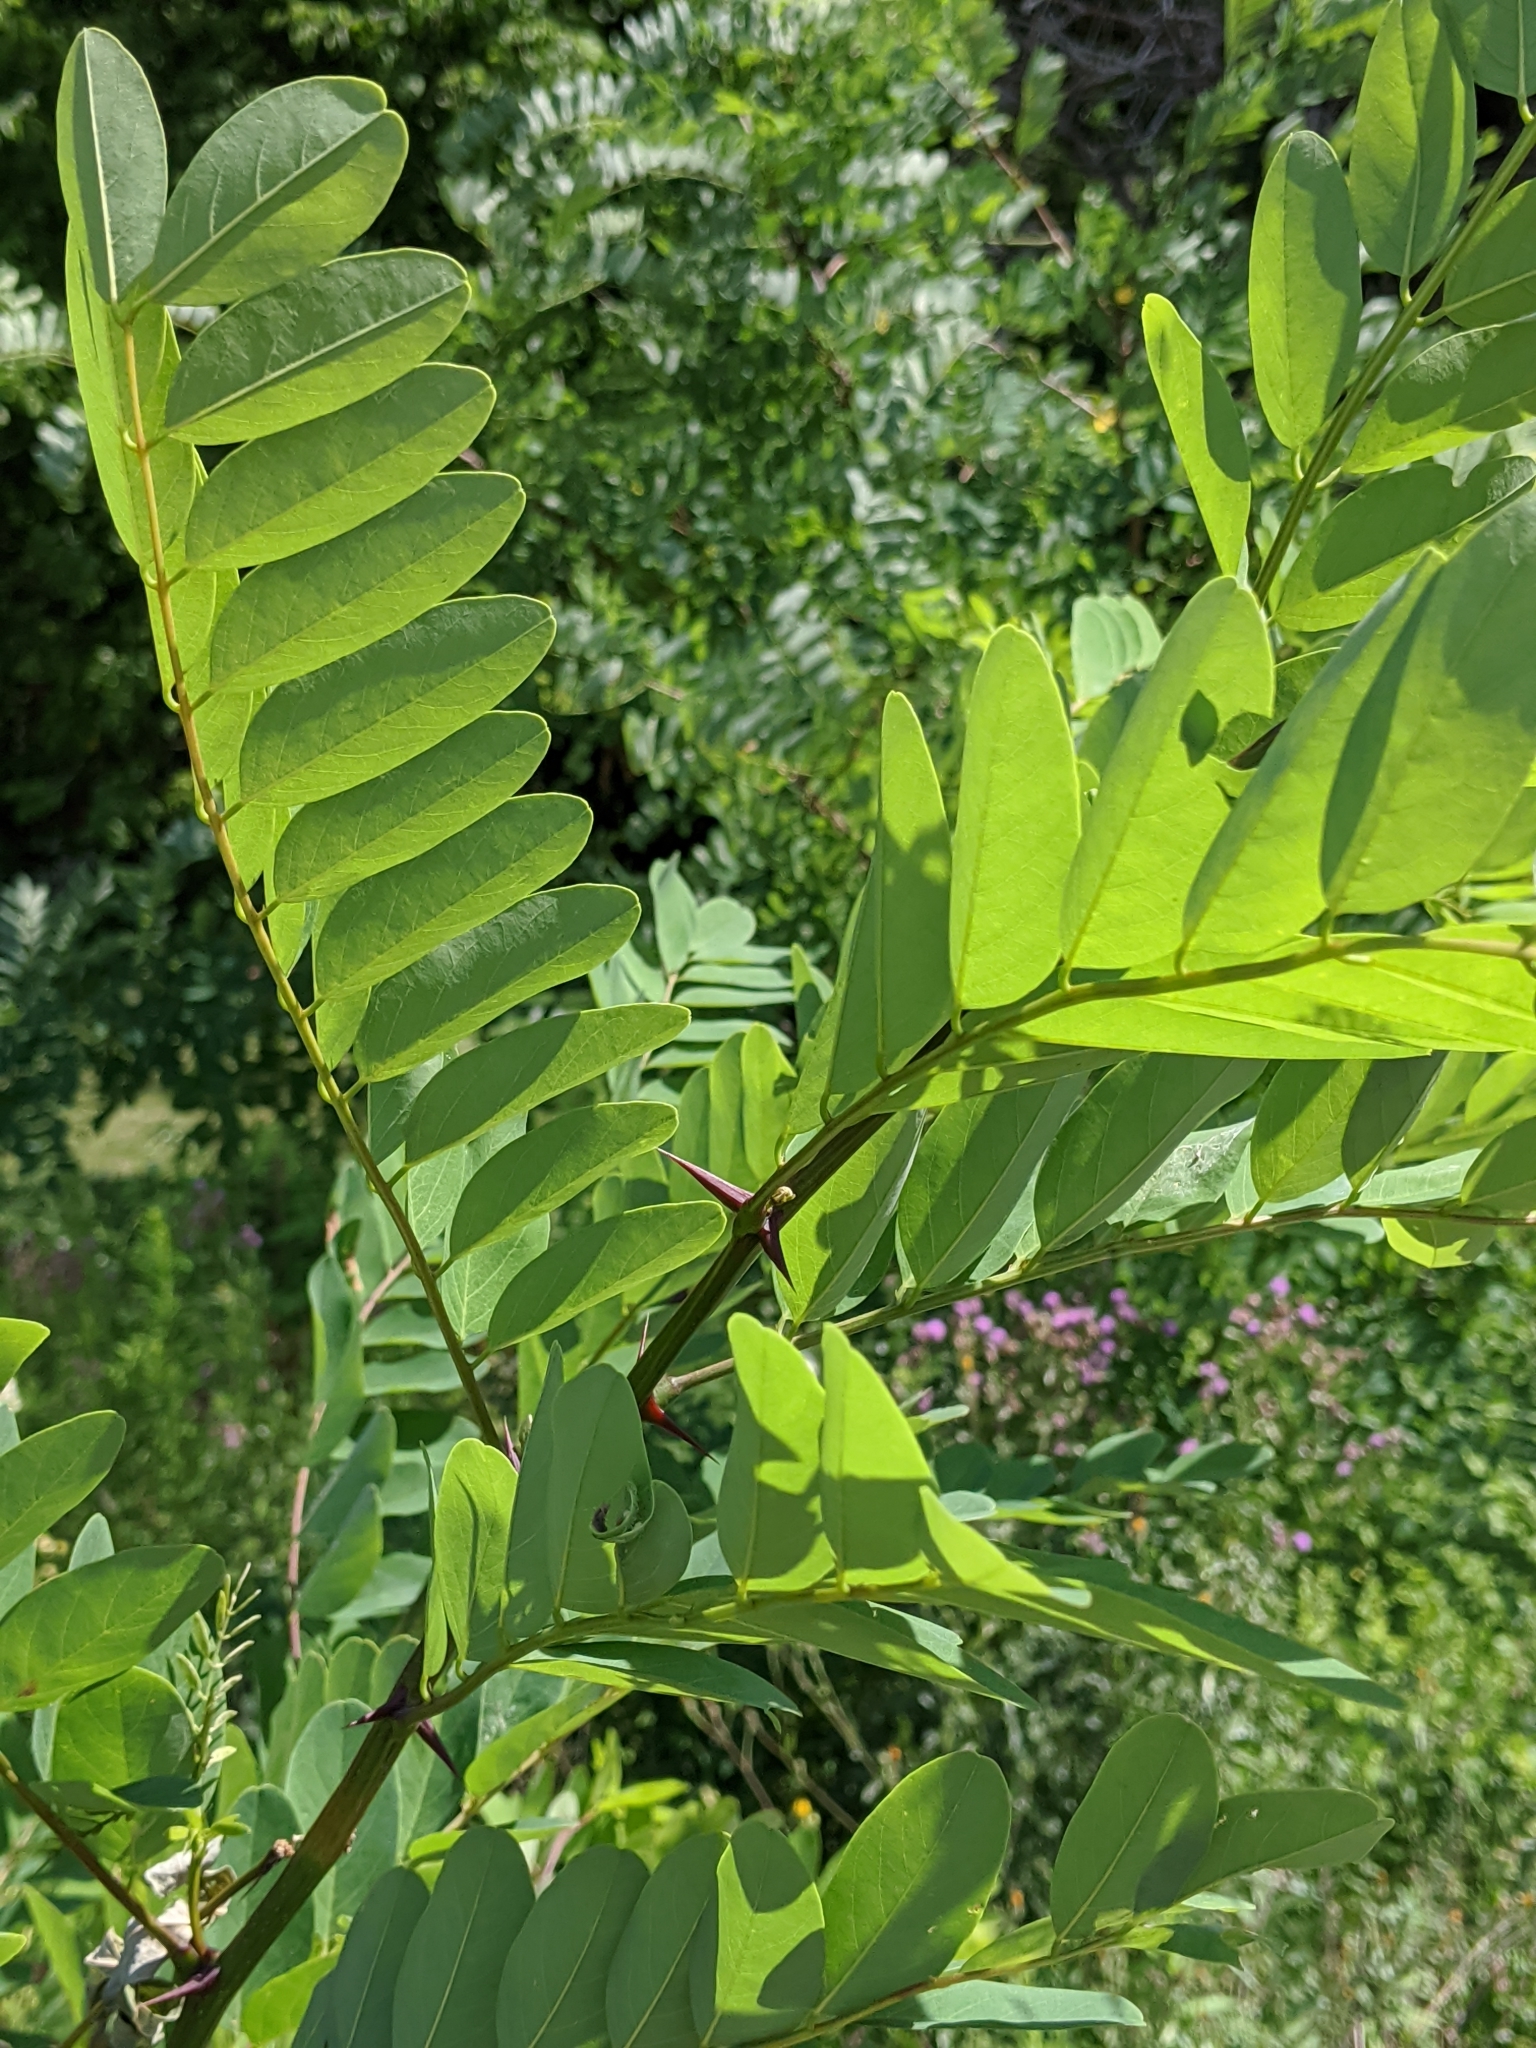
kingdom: Plantae
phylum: Tracheophyta
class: Magnoliopsida
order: Fabales
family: Fabaceae
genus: Robinia
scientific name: Robinia pseudoacacia
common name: Black locust
